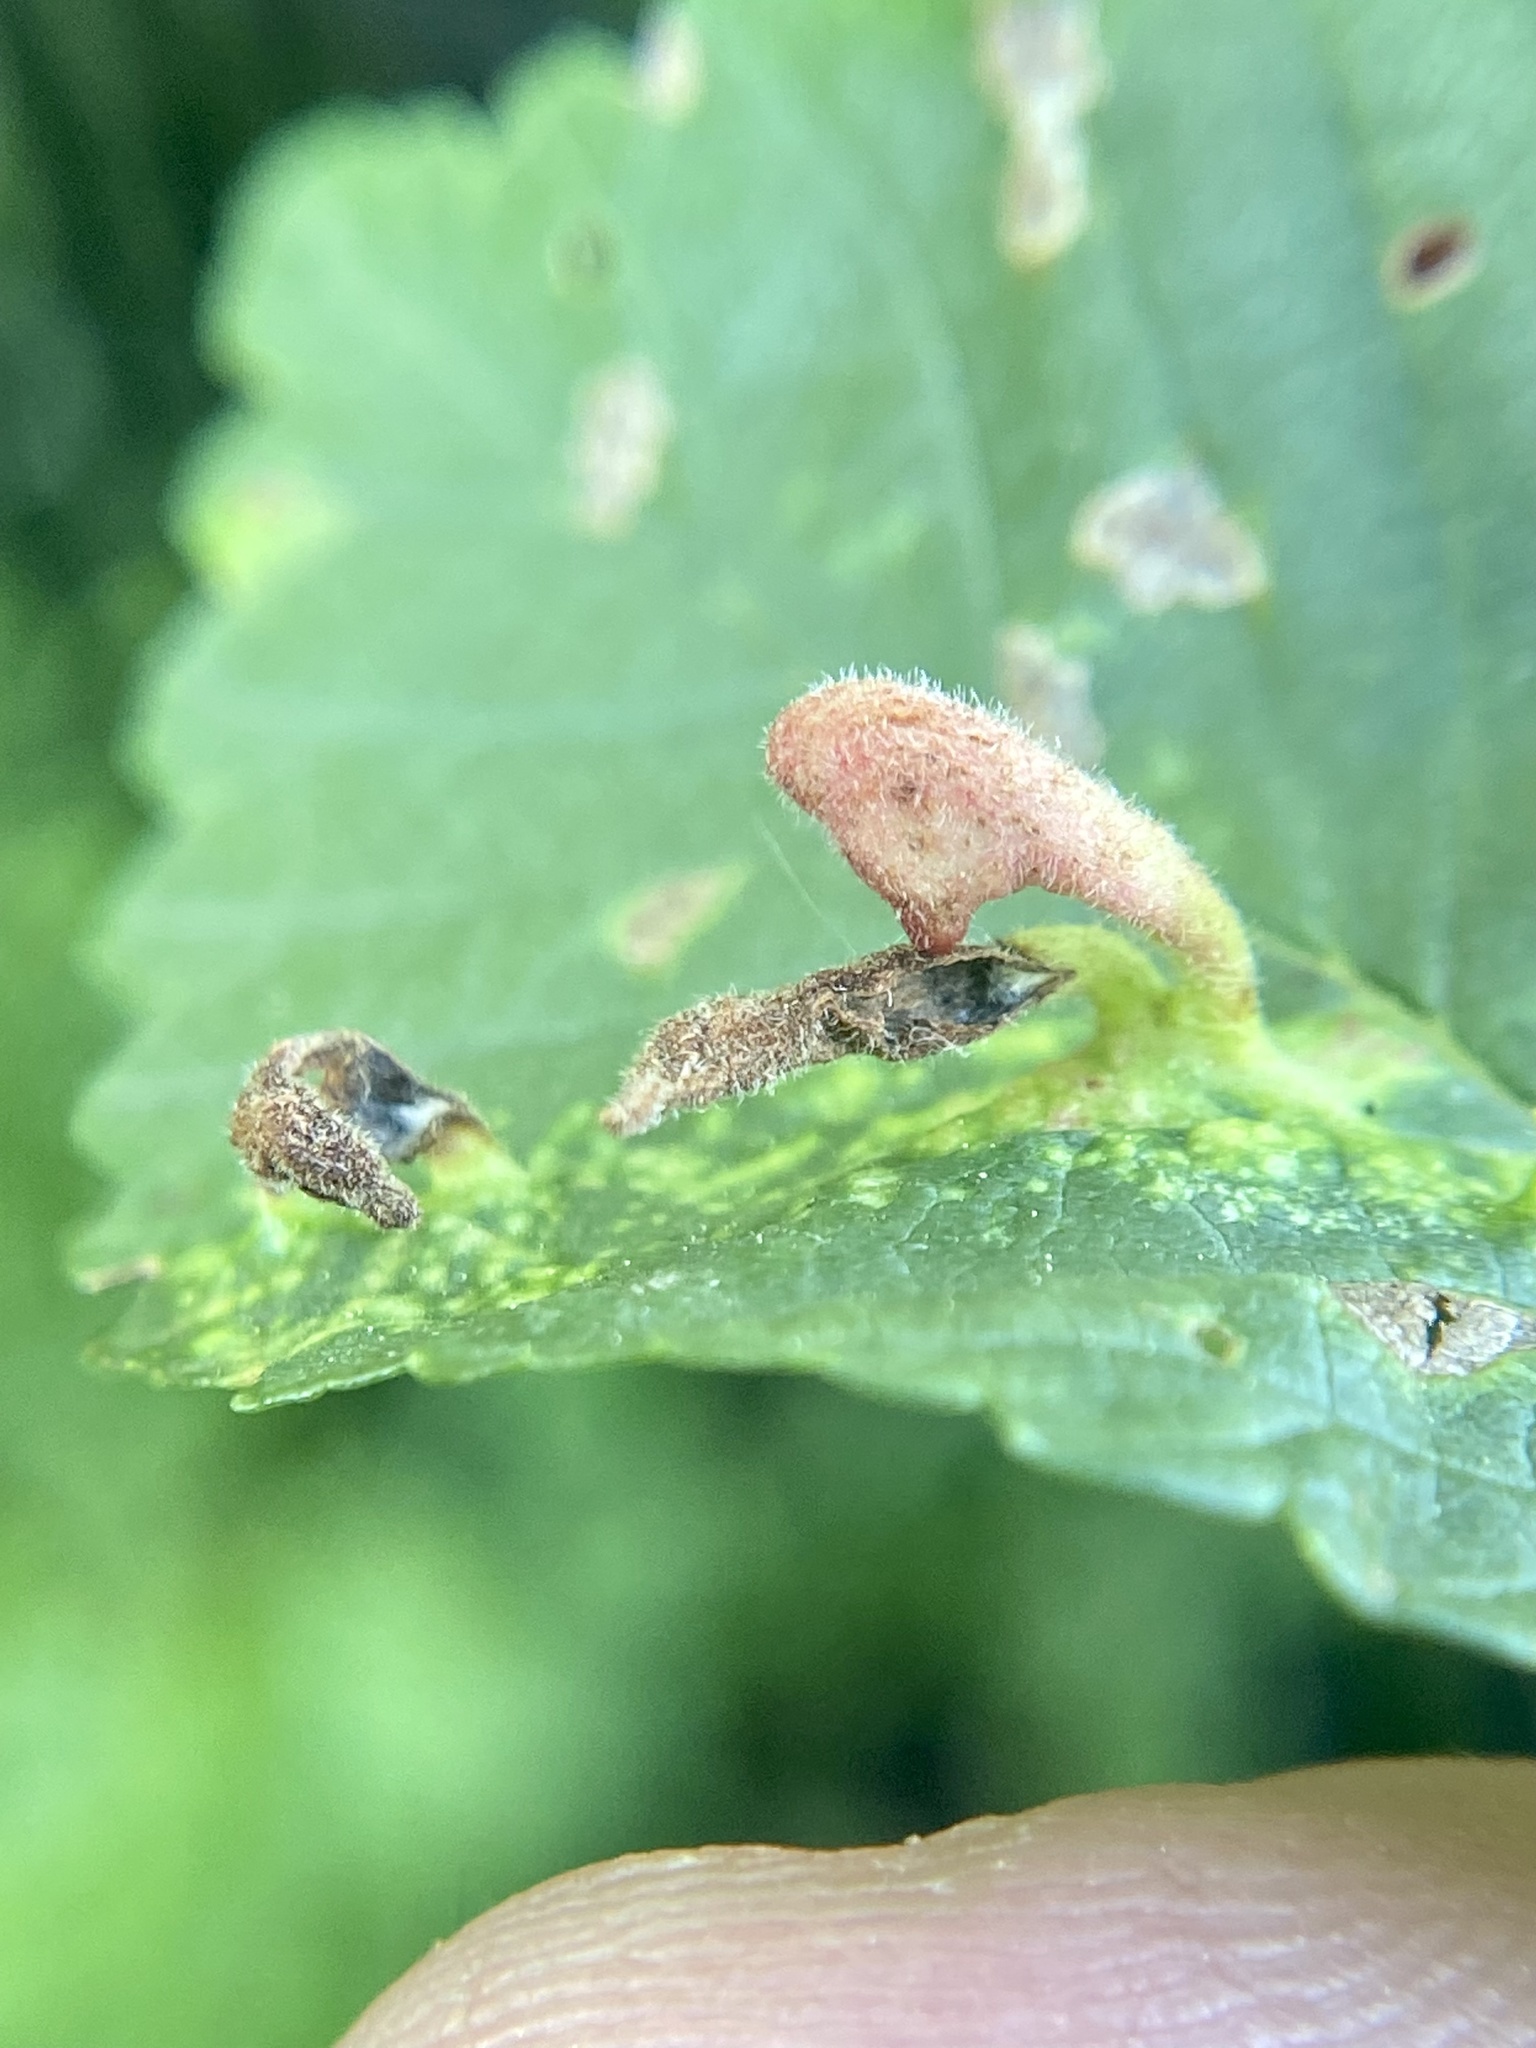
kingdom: Animalia
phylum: Arthropoda
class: Insecta
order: Hemiptera
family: Aphididae
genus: Tetraneura
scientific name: Tetraneura nigriabdominalis
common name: Aphid
